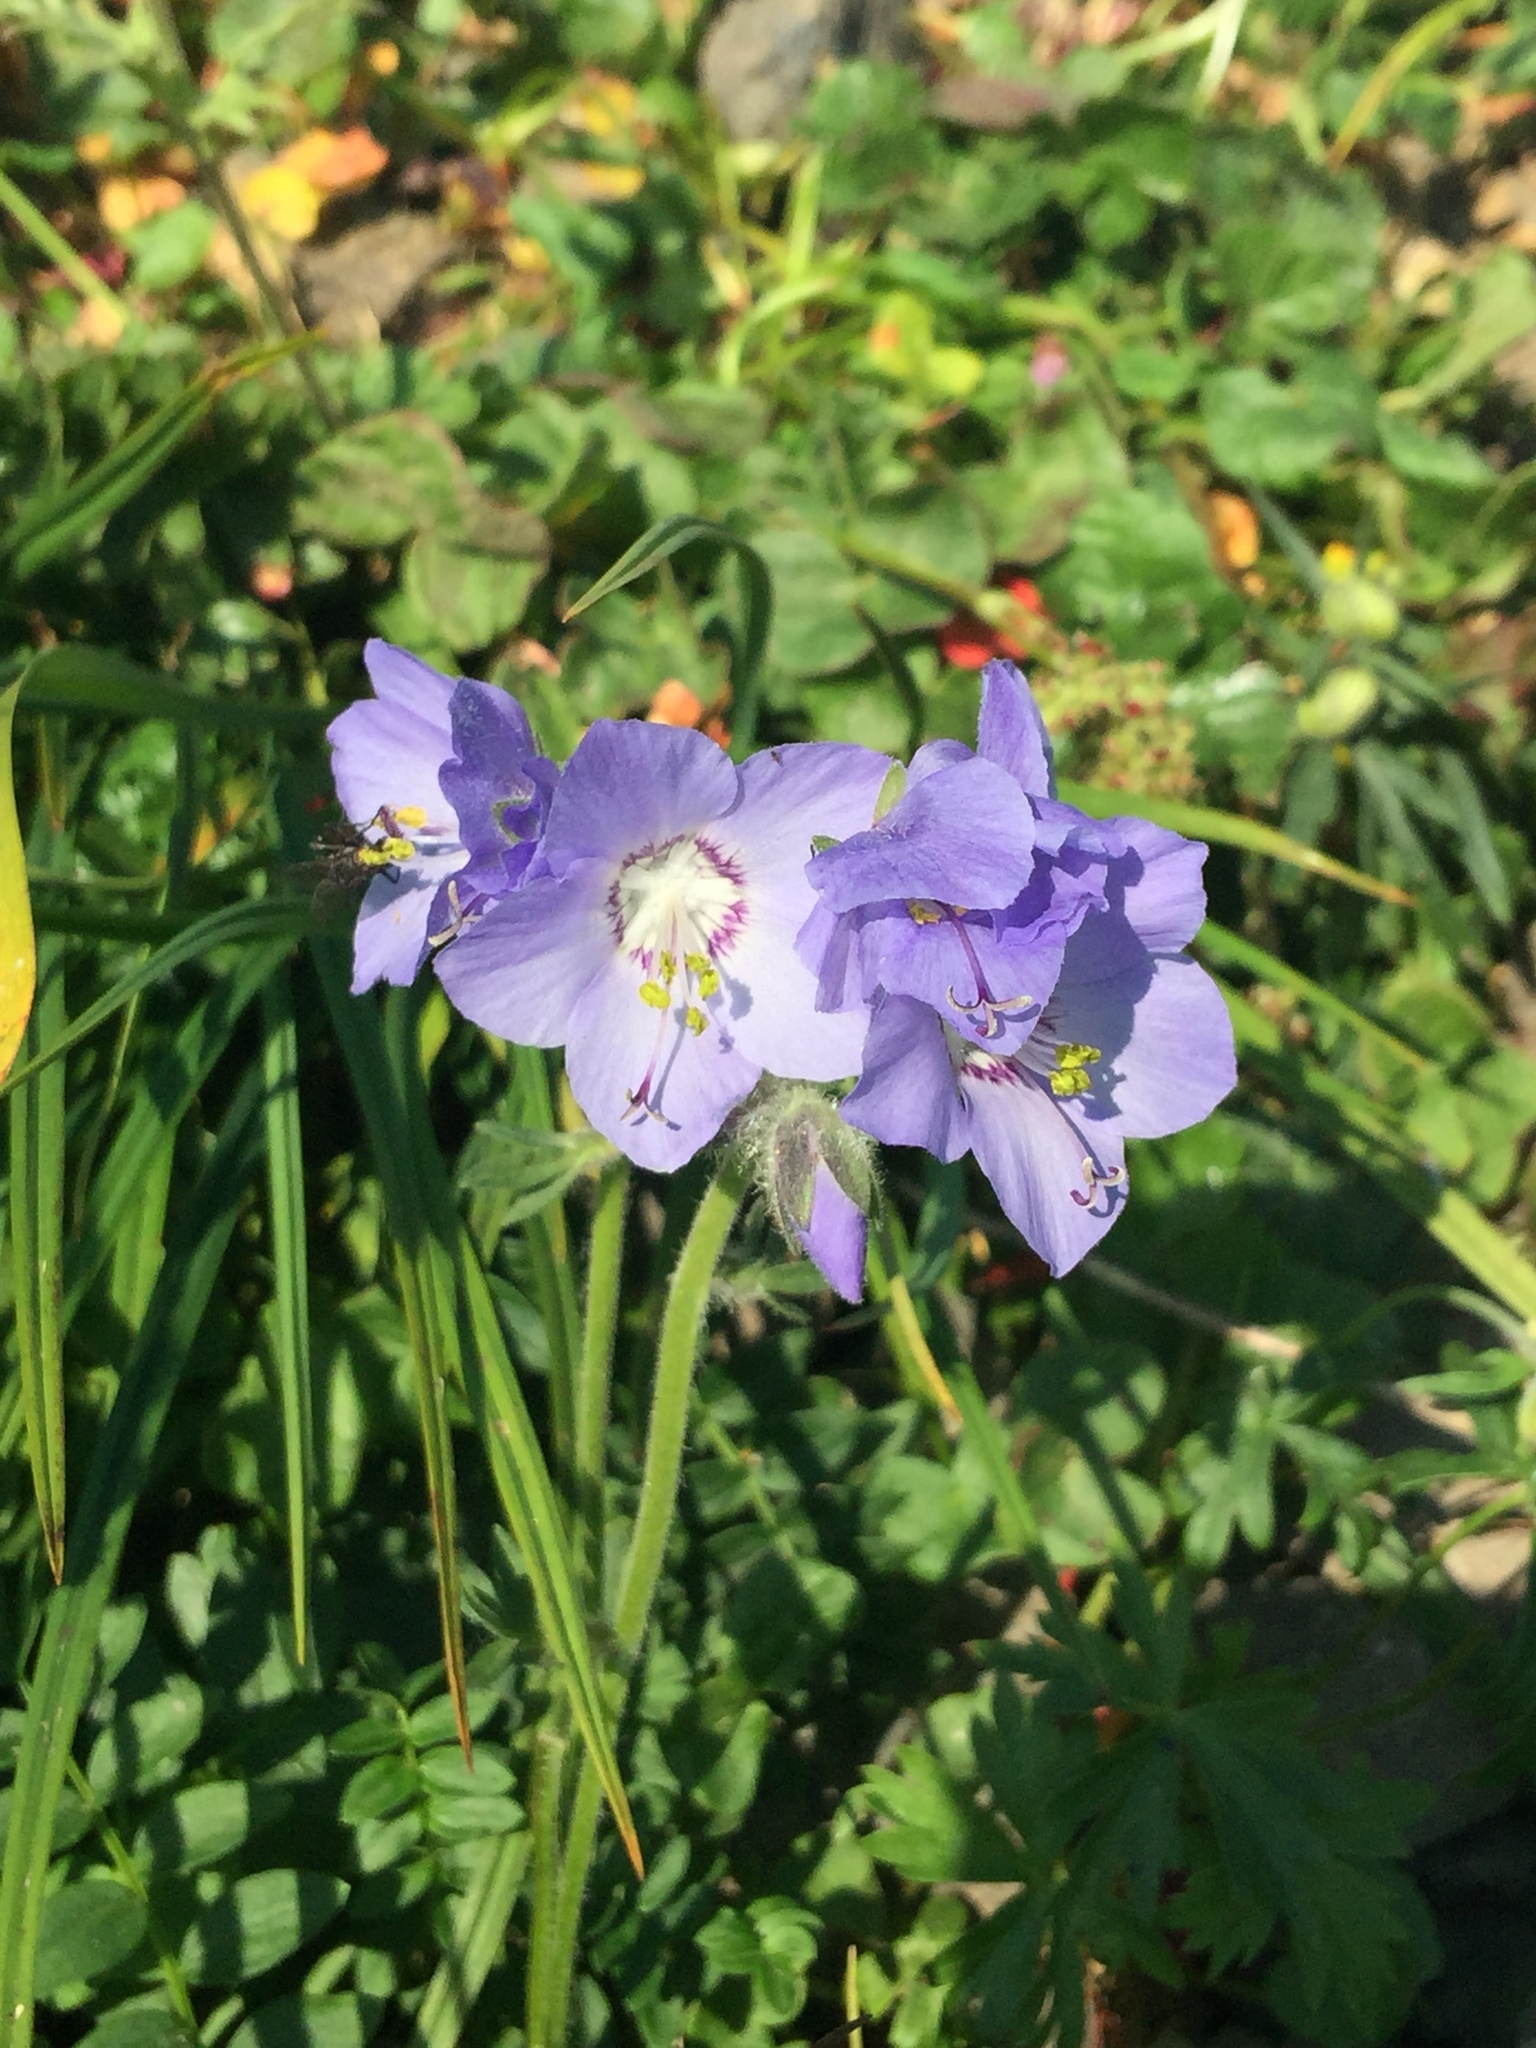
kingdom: Plantae
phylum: Tracheophyta
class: Magnoliopsida
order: Ericales
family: Polemoniaceae
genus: Polemonium
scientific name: Polemonium acutiflorum
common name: Tall jacob's-ladder
